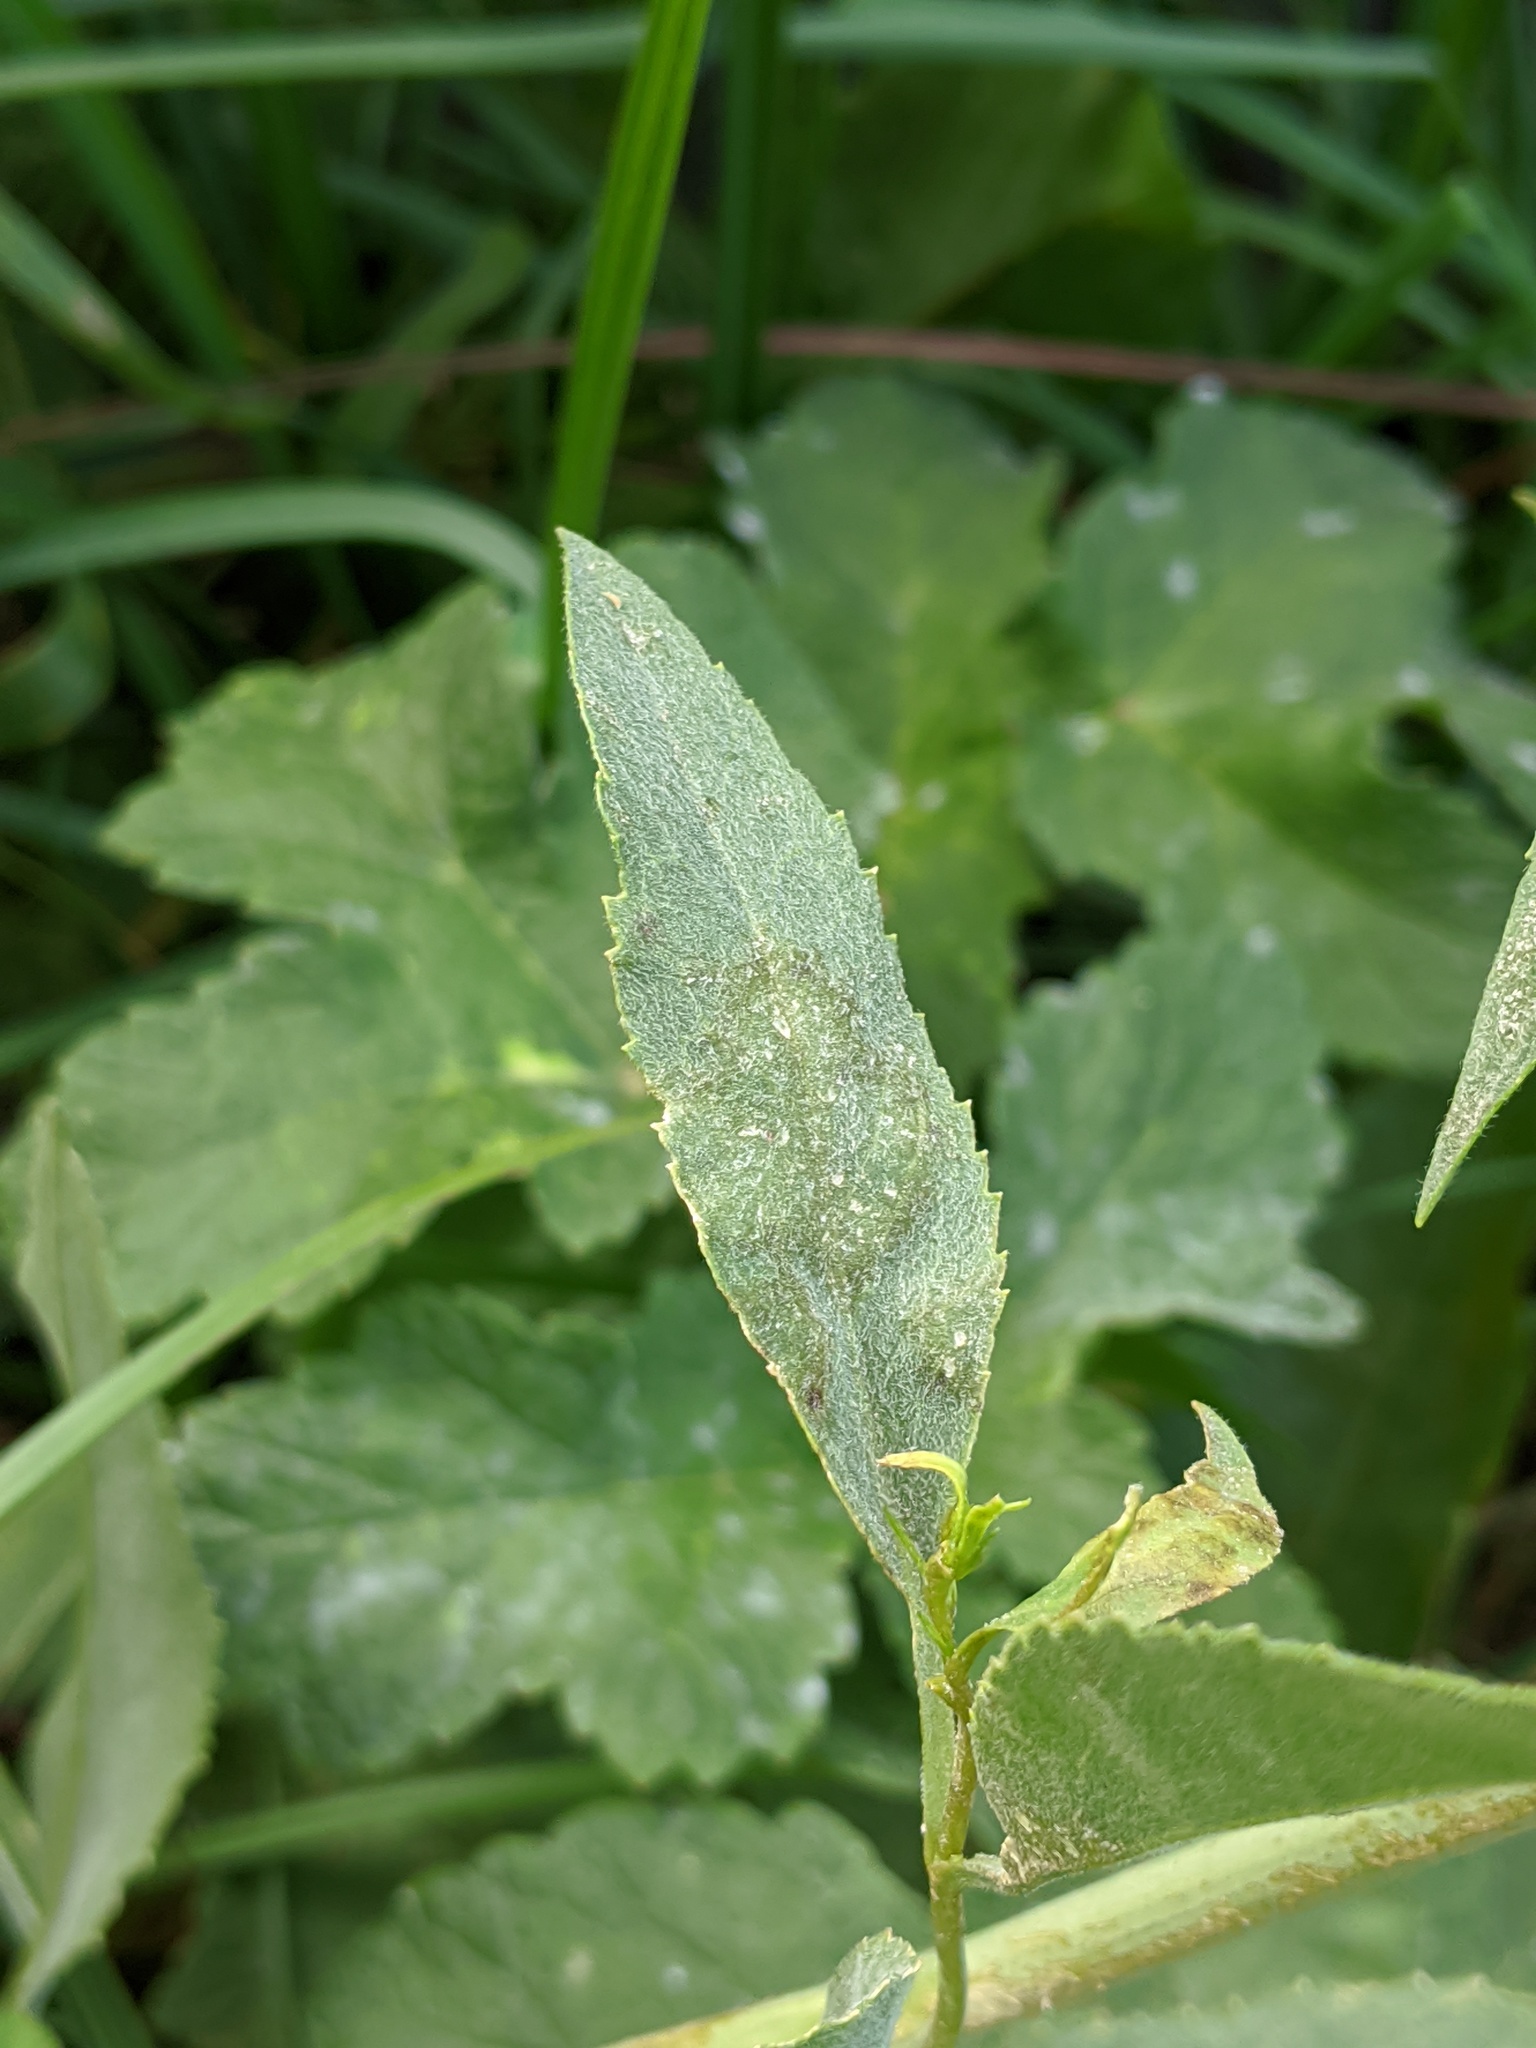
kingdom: Plantae
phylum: Tracheophyta
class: Magnoliopsida
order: Brassicales
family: Brassicaceae
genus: Lepidium
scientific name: Lepidium latifolium
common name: Dittander
